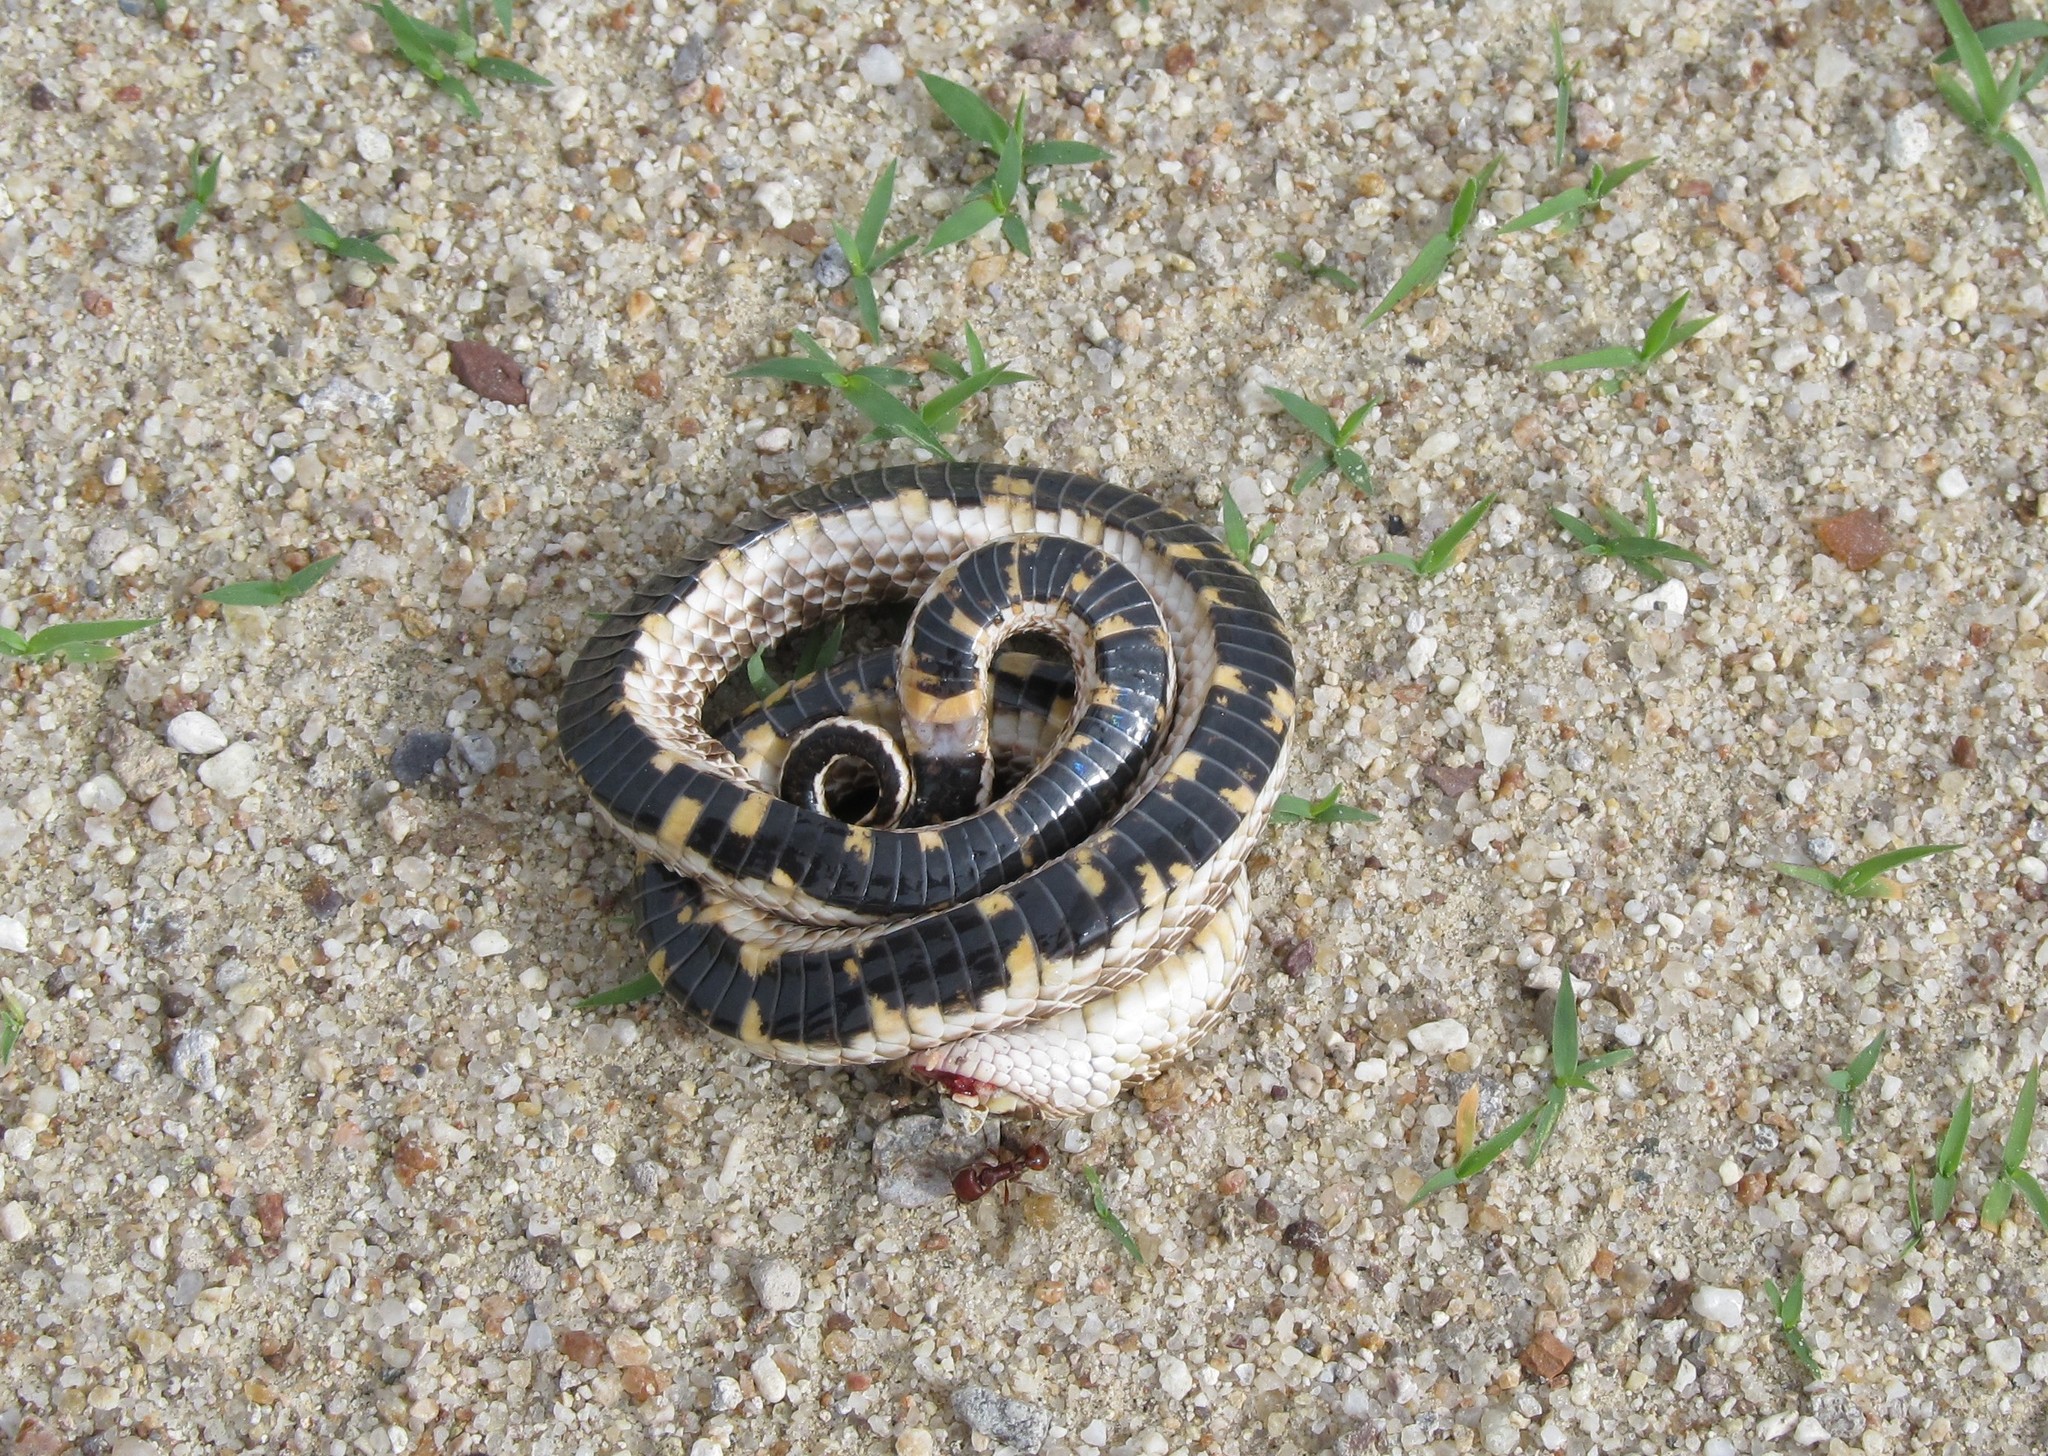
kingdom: Animalia
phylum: Chordata
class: Squamata
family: Colubridae
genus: Heterodon
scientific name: Heterodon kennerlyi
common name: Mexican hognose snake
